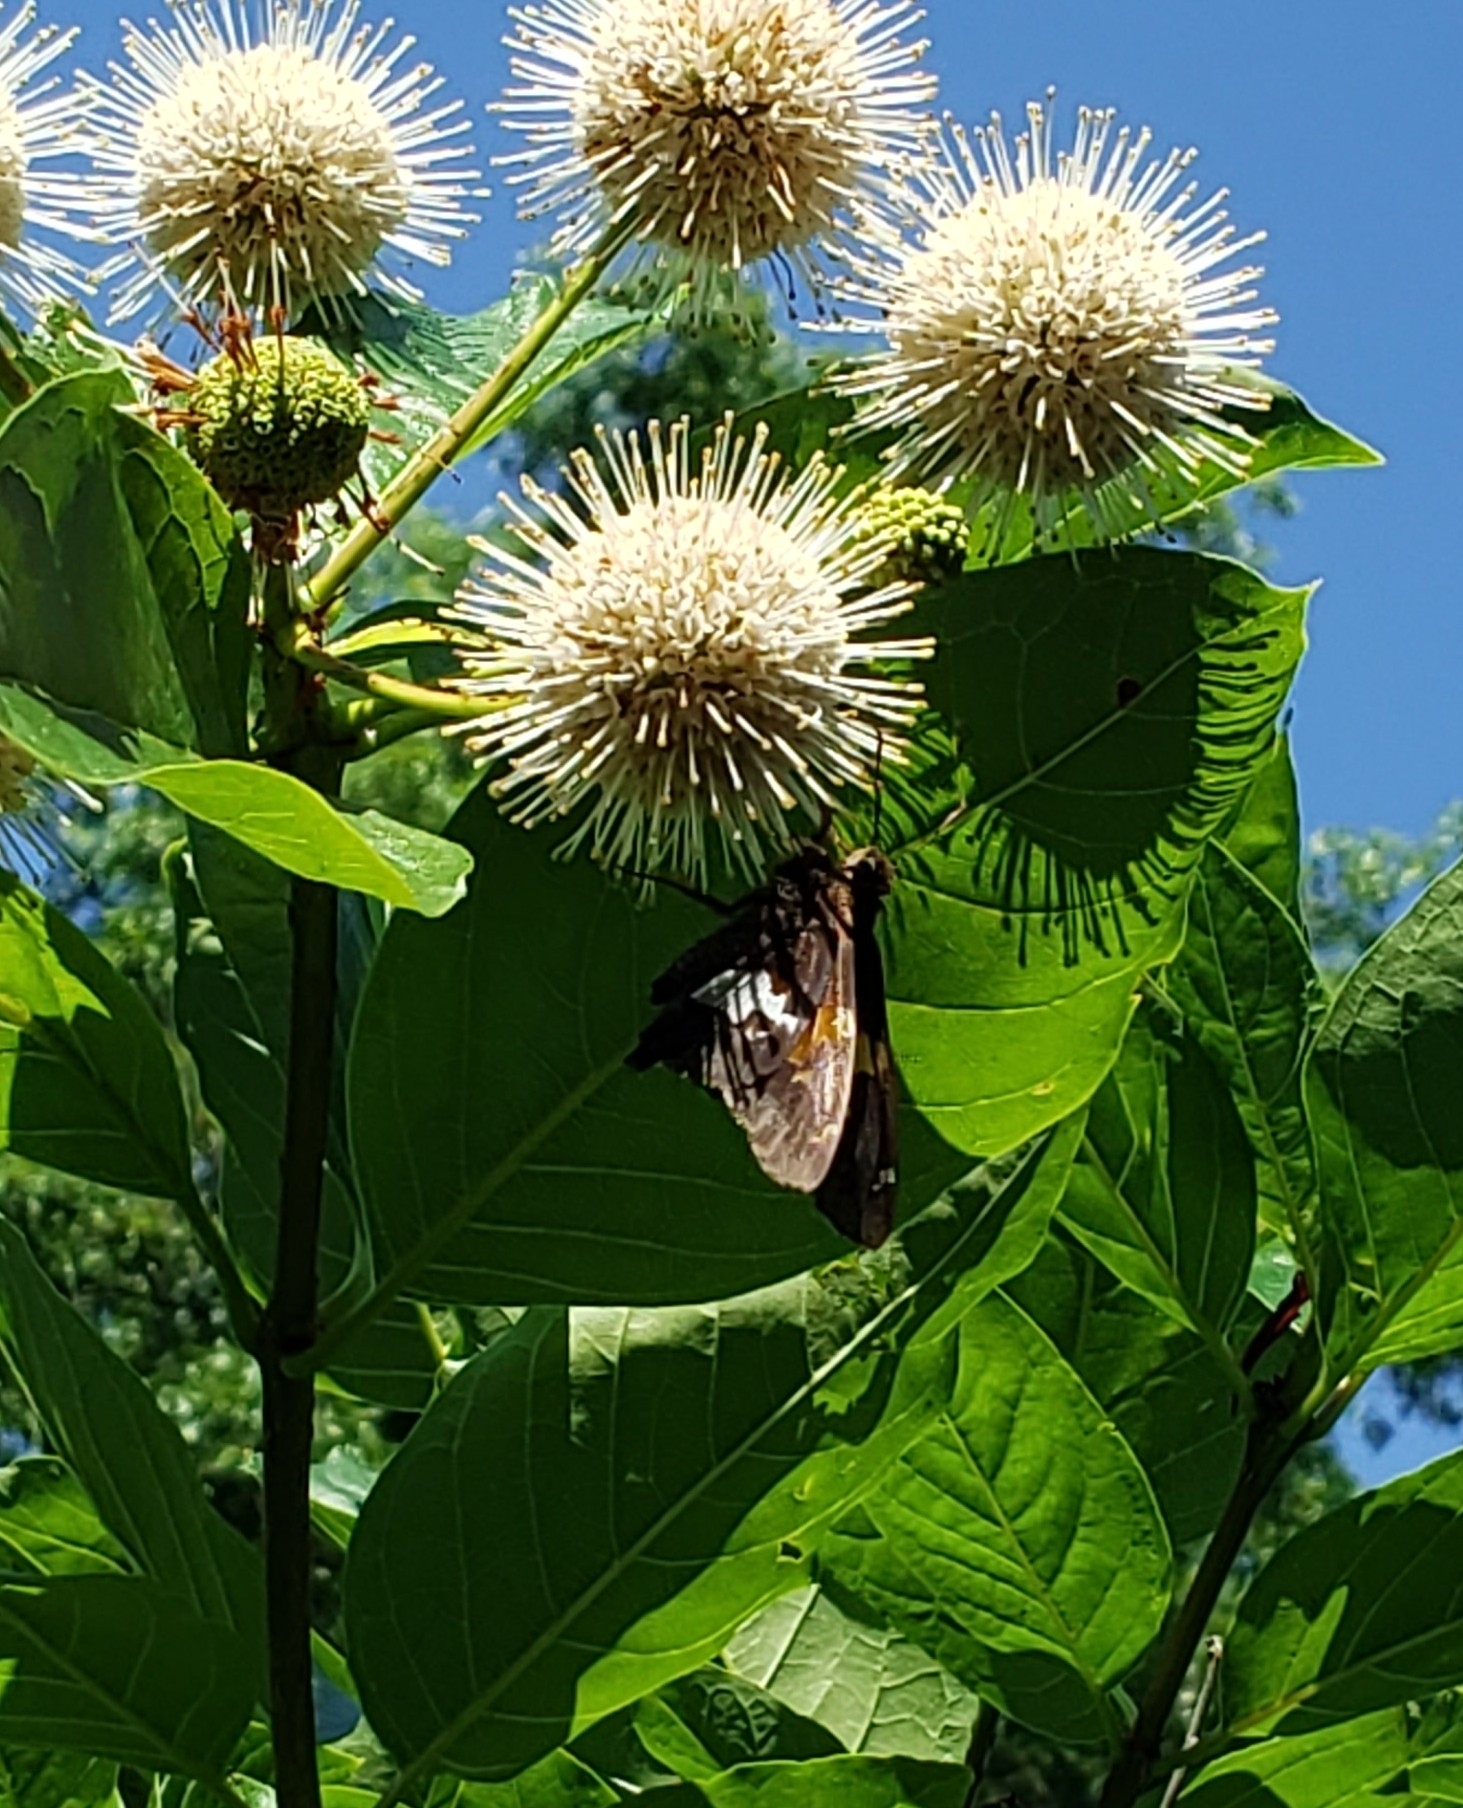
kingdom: Animalia
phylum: Arthropoda
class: Insecta
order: Lepidoptera
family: Hesperiidae
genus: Epargyreus
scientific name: Epargyreus clarus
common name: Silver-spotted skipper
